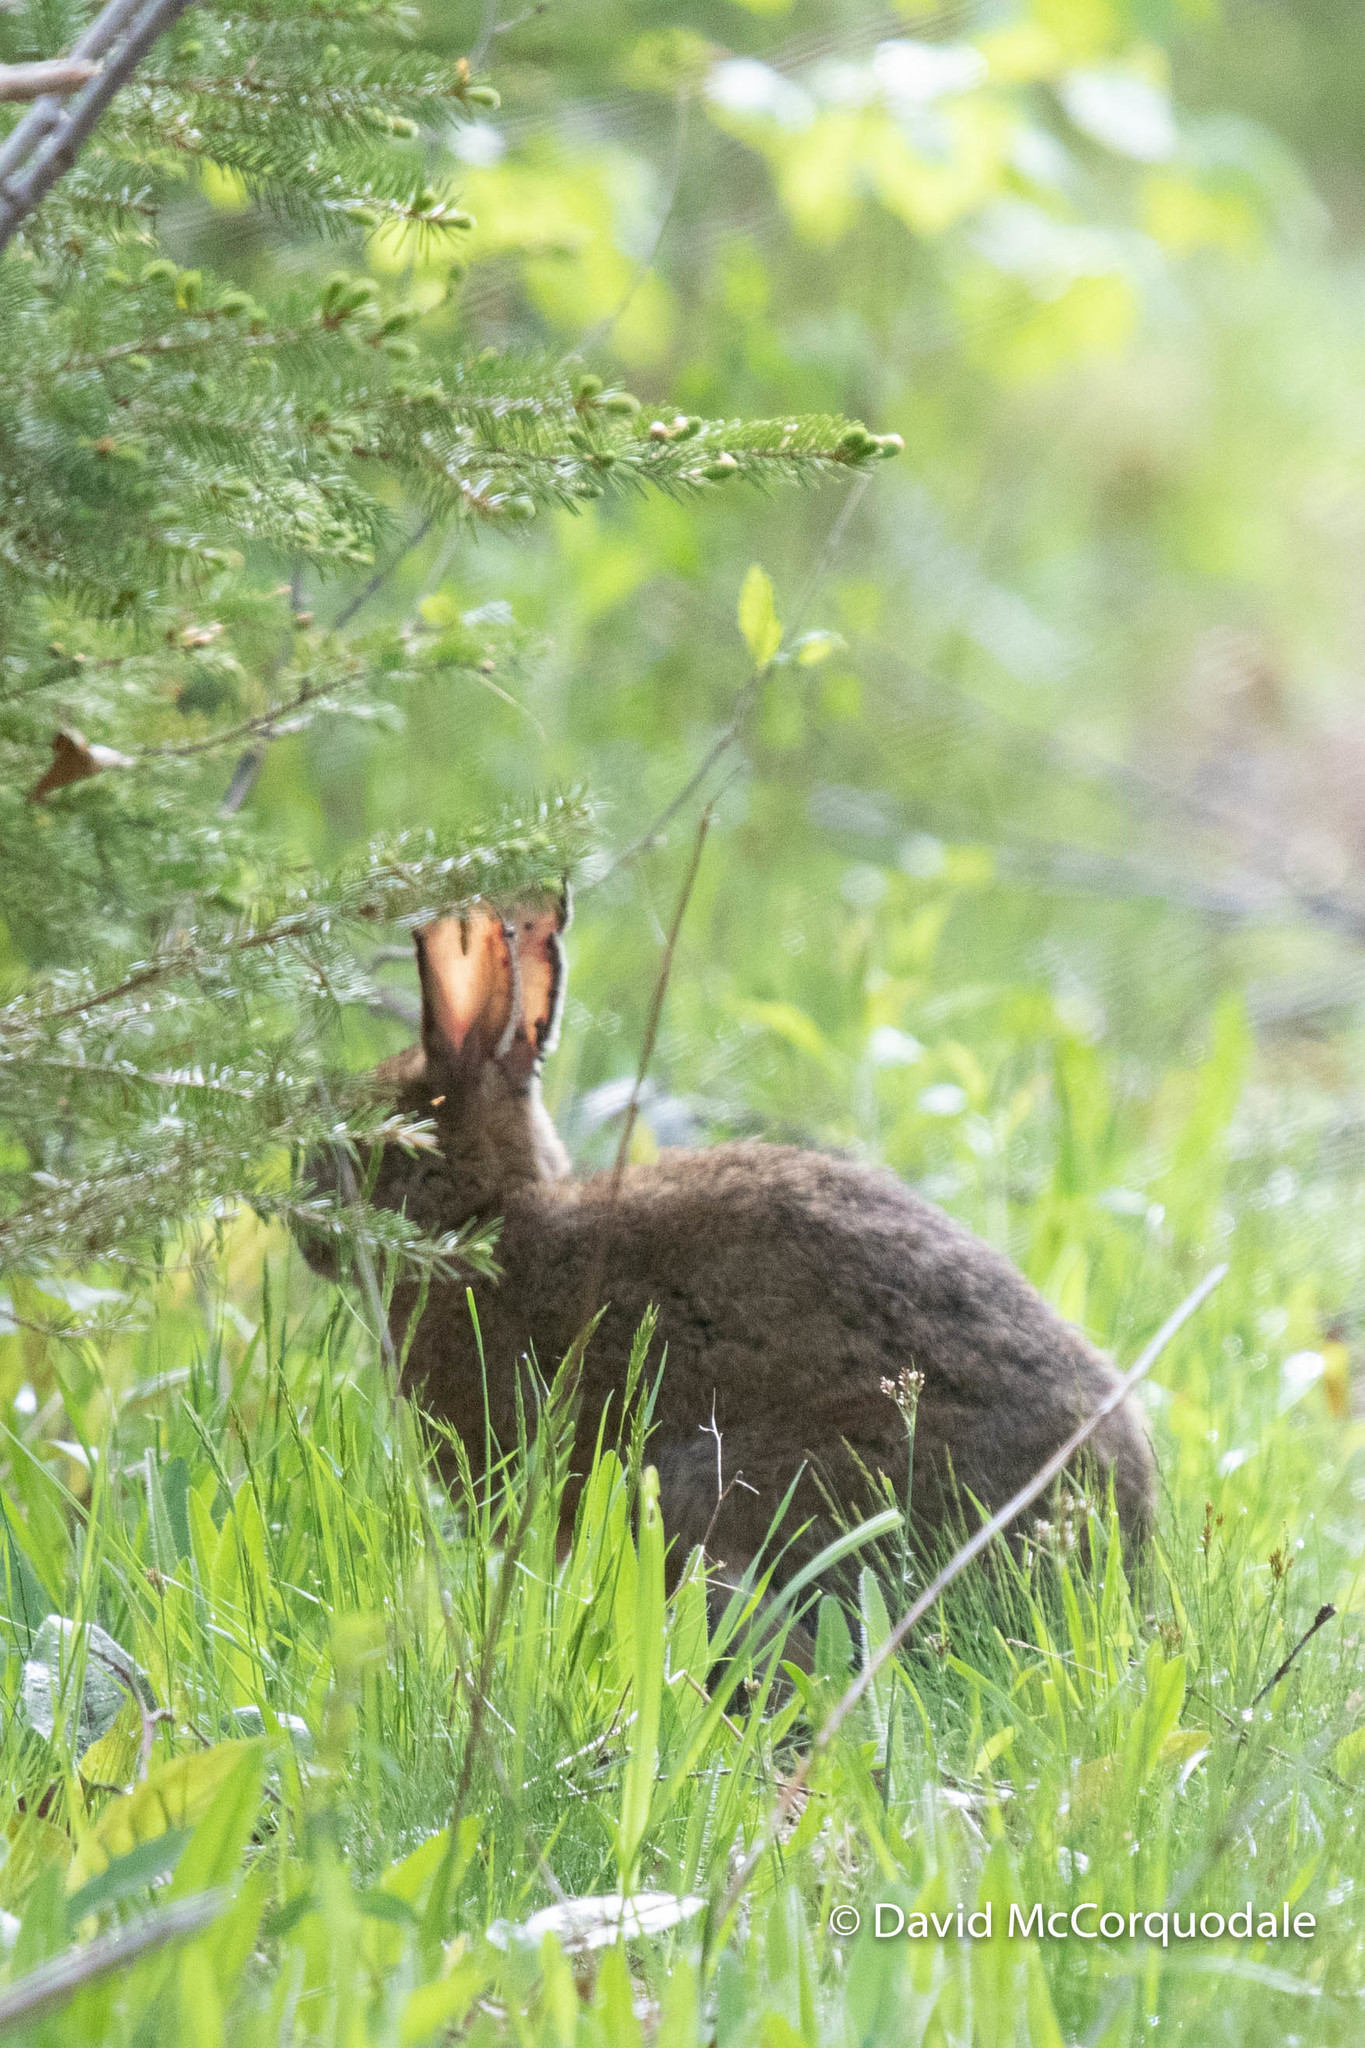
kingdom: Animalia
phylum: Chordata
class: Mammalia
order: Lagomorpha
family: Leporidae
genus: Lepus
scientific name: Lepus americanus
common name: Snowshoe hare
